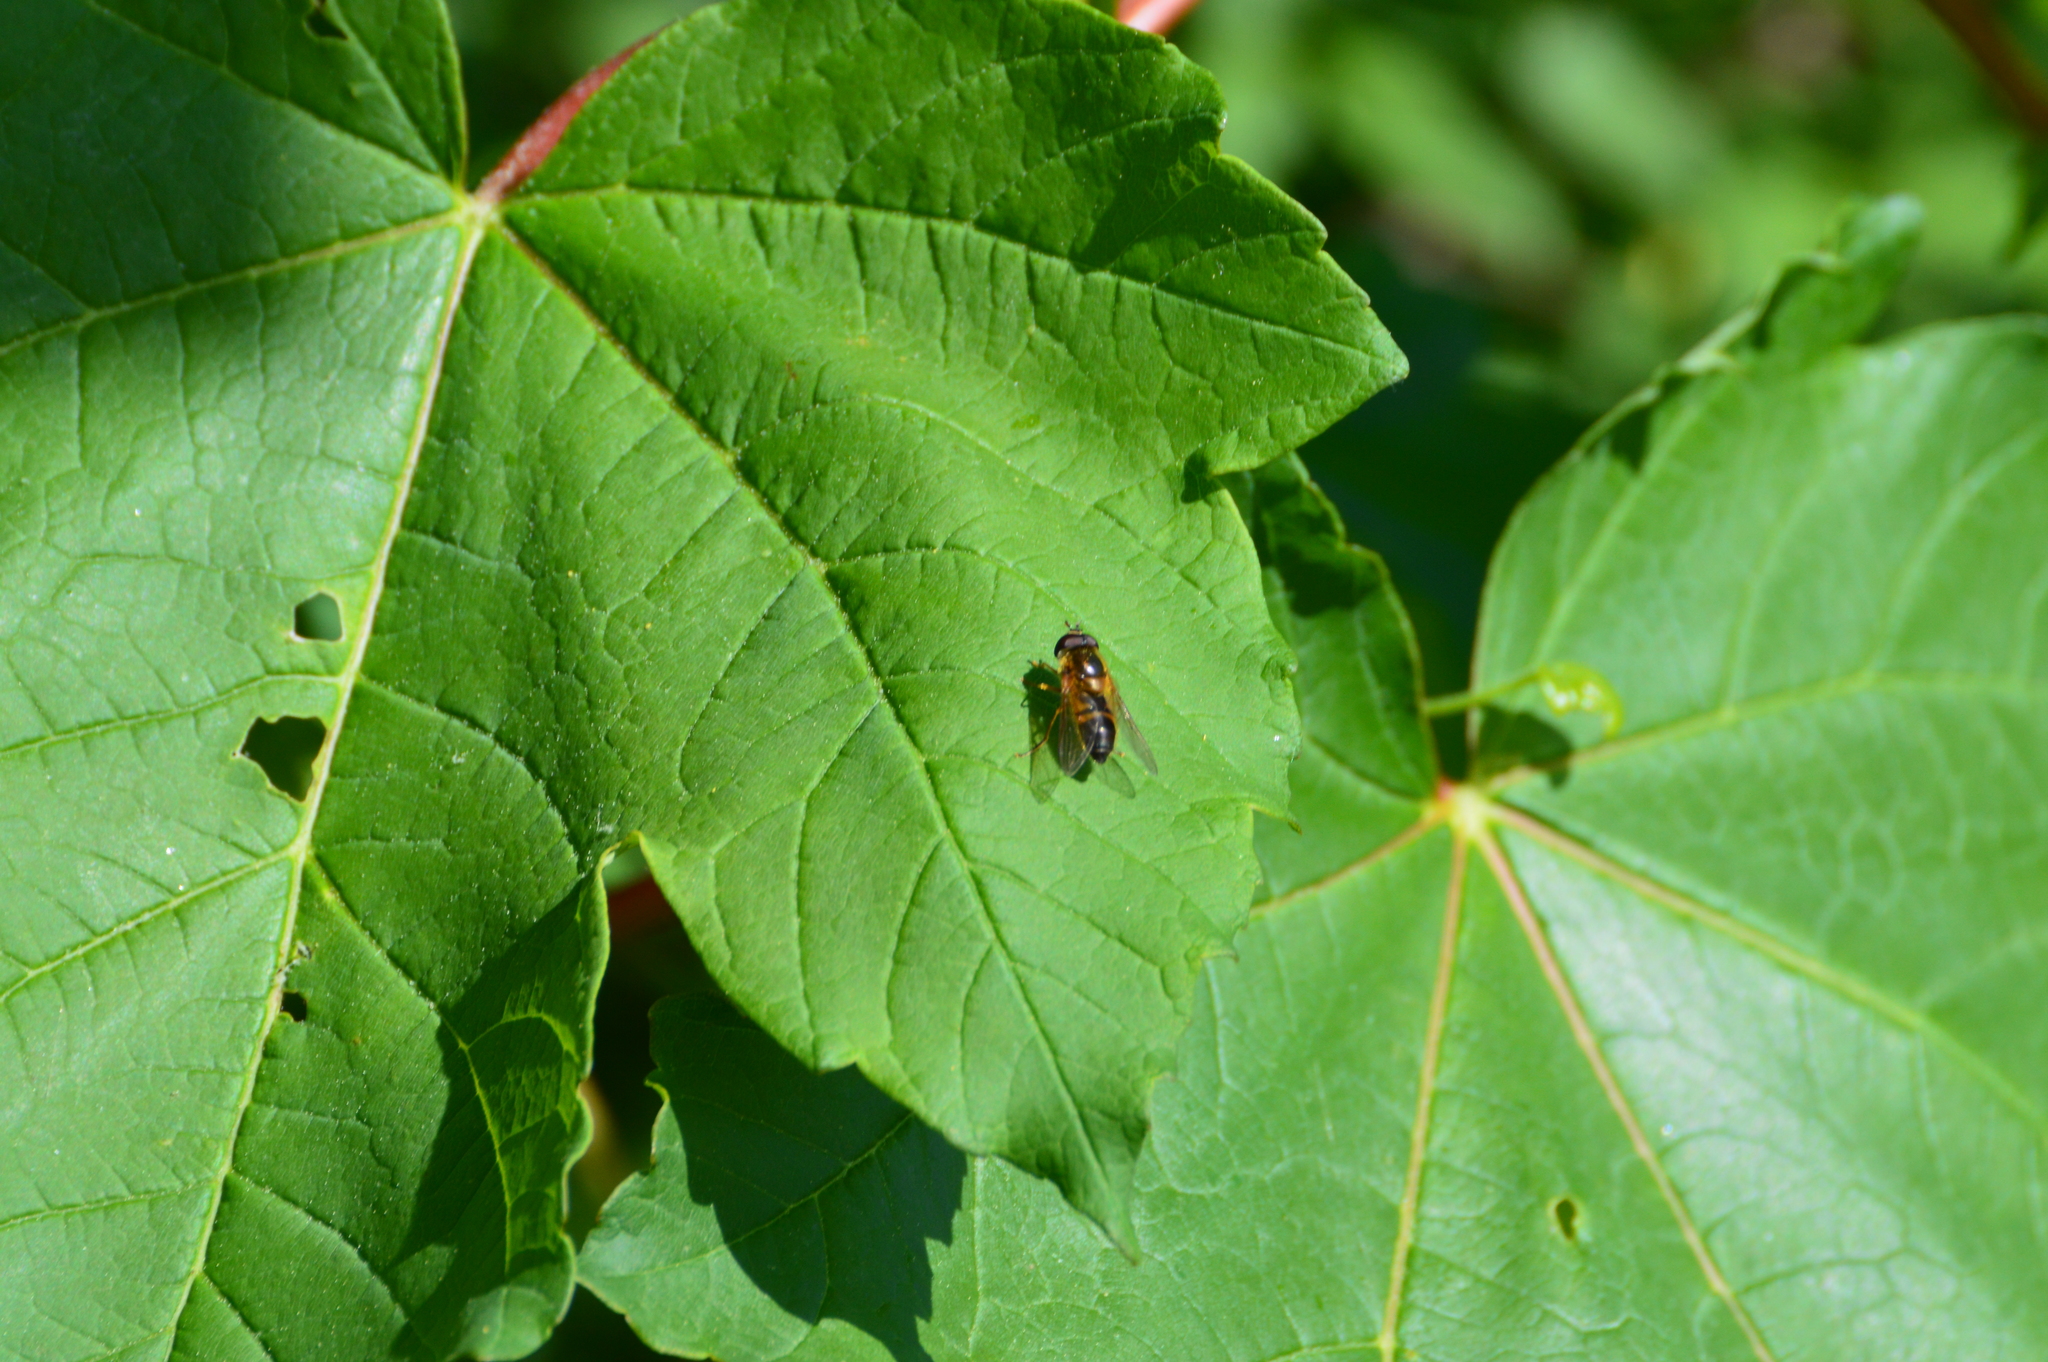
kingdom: Animalia
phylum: Arthropoda
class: Insecta
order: Diptera
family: Syrphidae
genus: Epistrophe
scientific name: Epistrophe eligans
